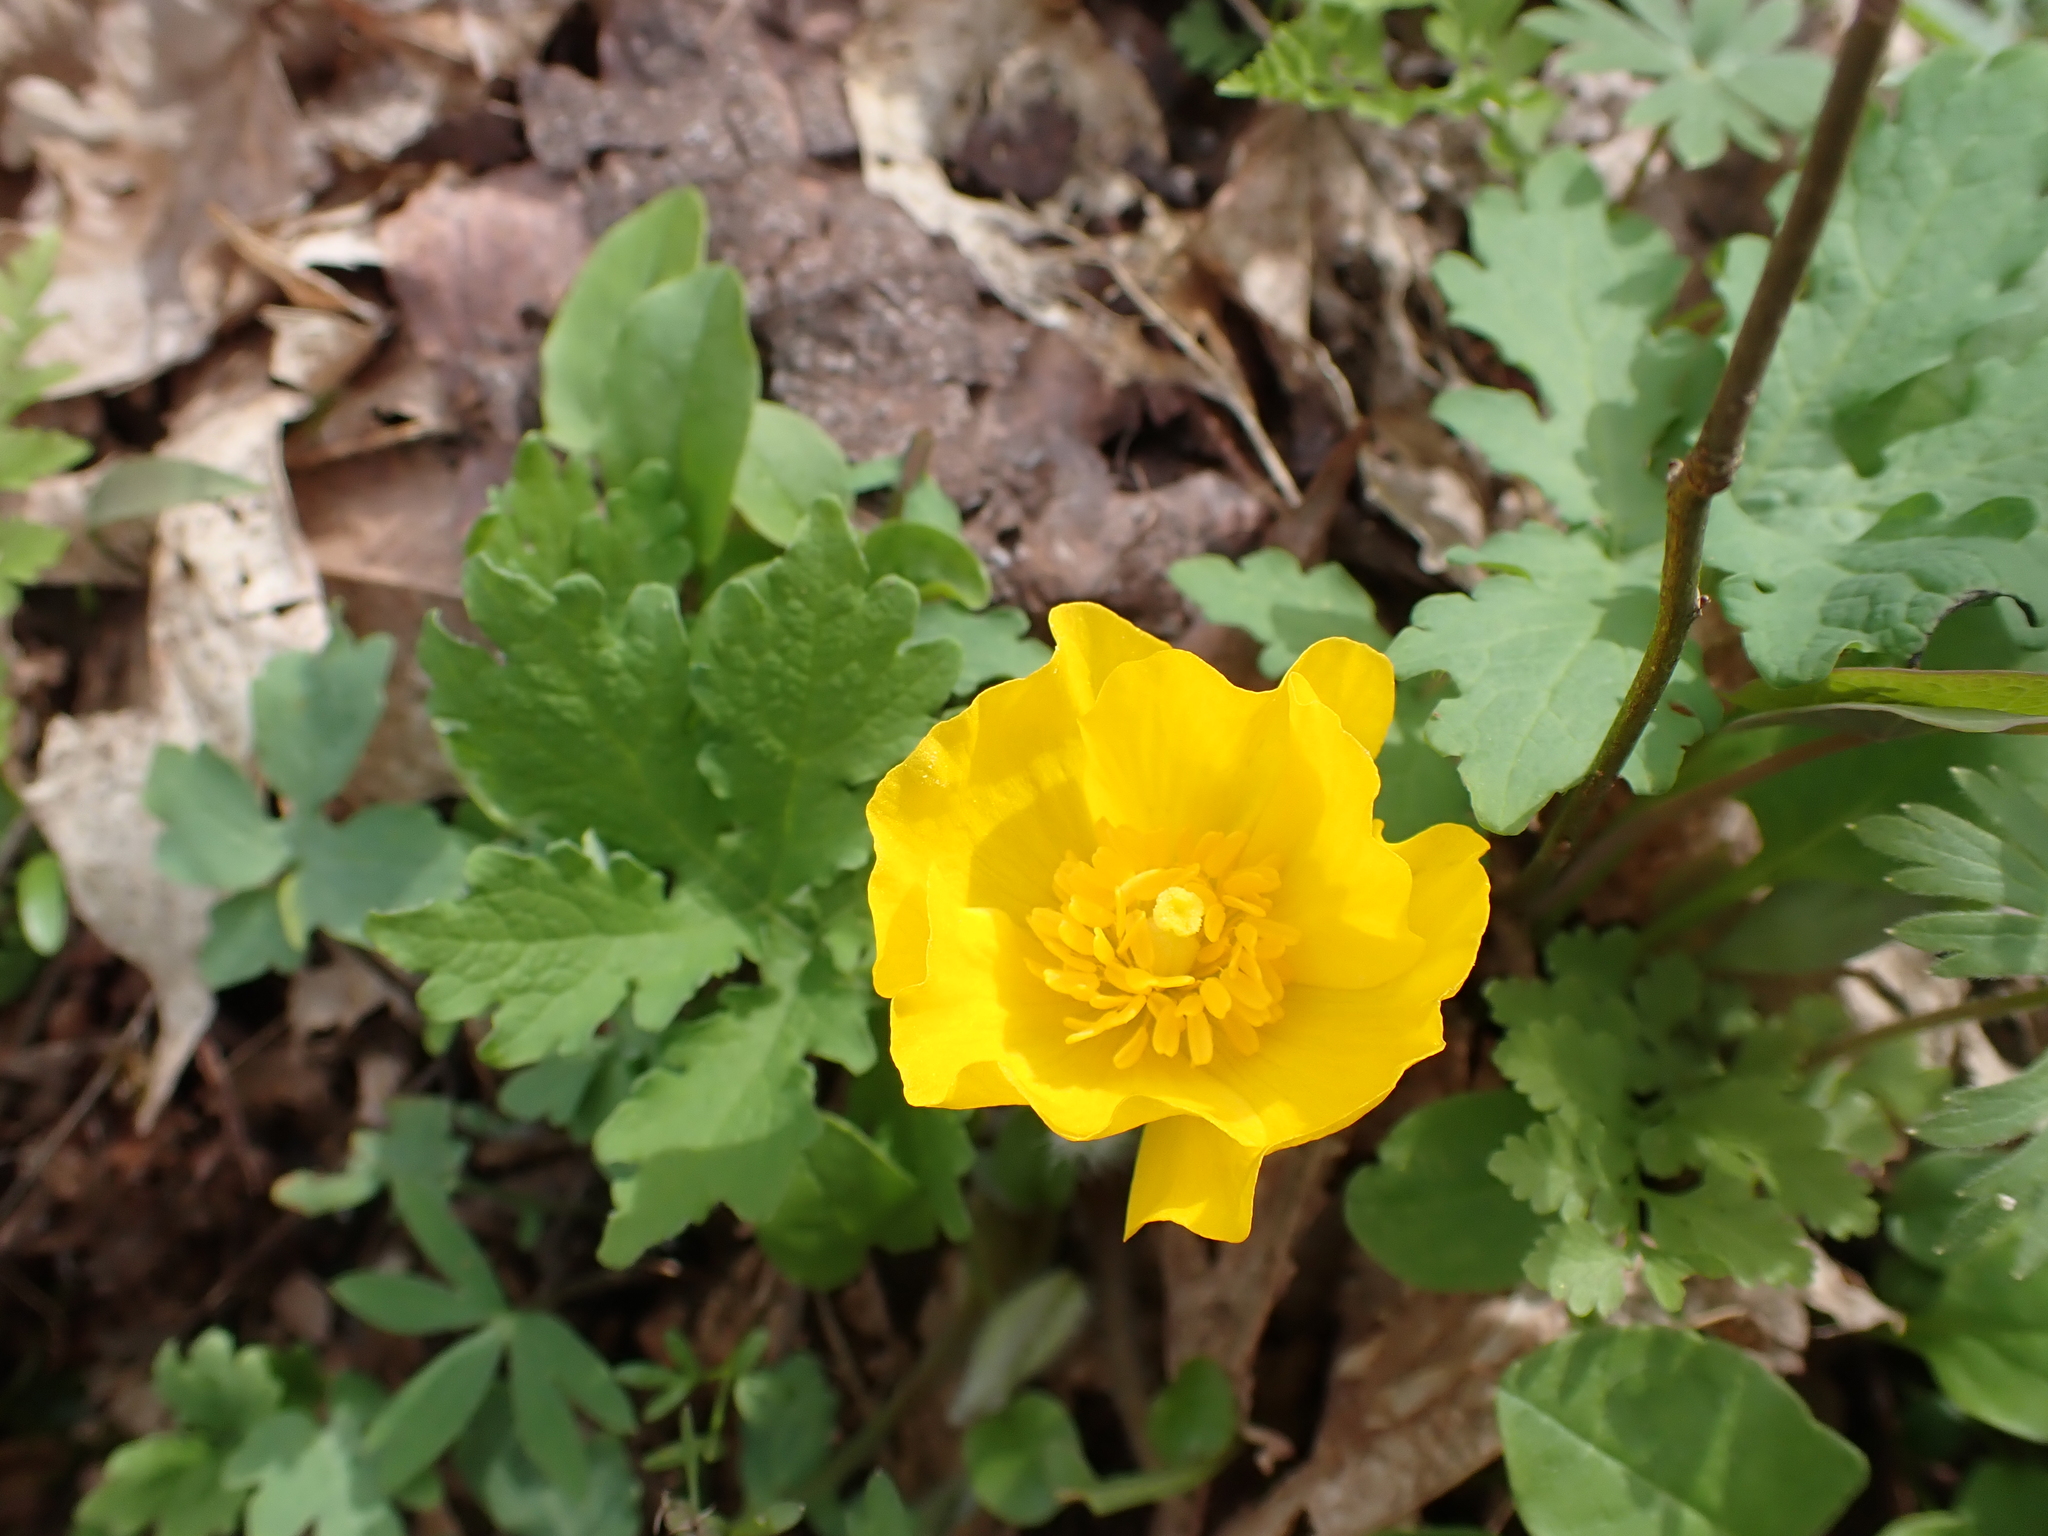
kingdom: Plantae
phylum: Tracheophyta
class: Magnoliopsida
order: Ranunculales
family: Papaveraceae
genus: Stylophorum
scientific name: Stylophorum diphyllum
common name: Celandine poppy
